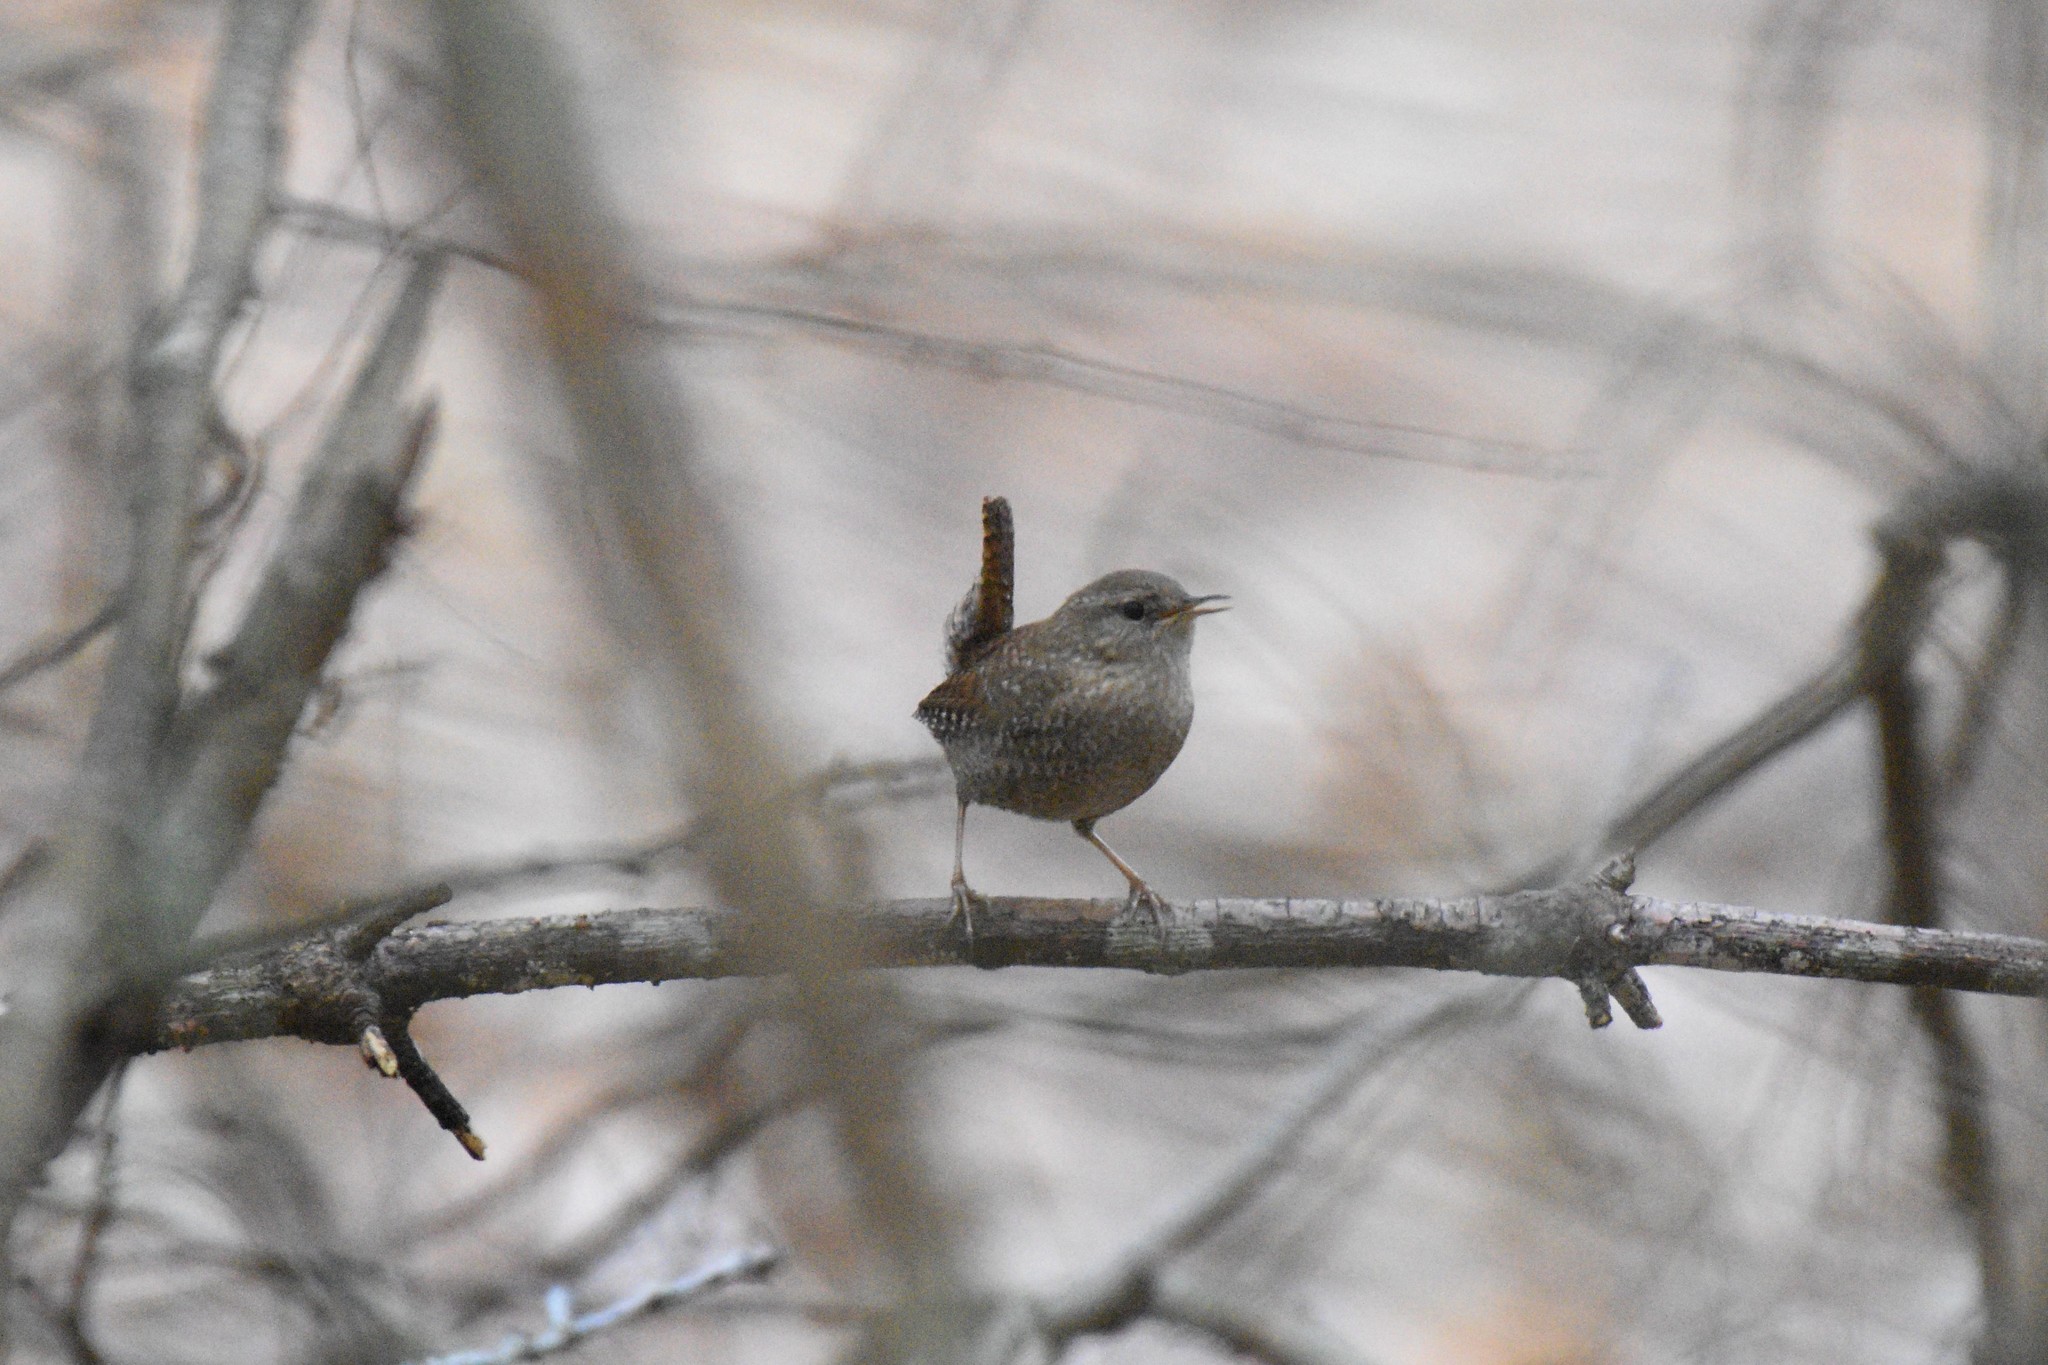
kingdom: Animalia
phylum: Chordata
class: Aves
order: Passeriformes
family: Troglodytidae
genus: Troglodytes
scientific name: Troglodytes hiemalis
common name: Winter wren
